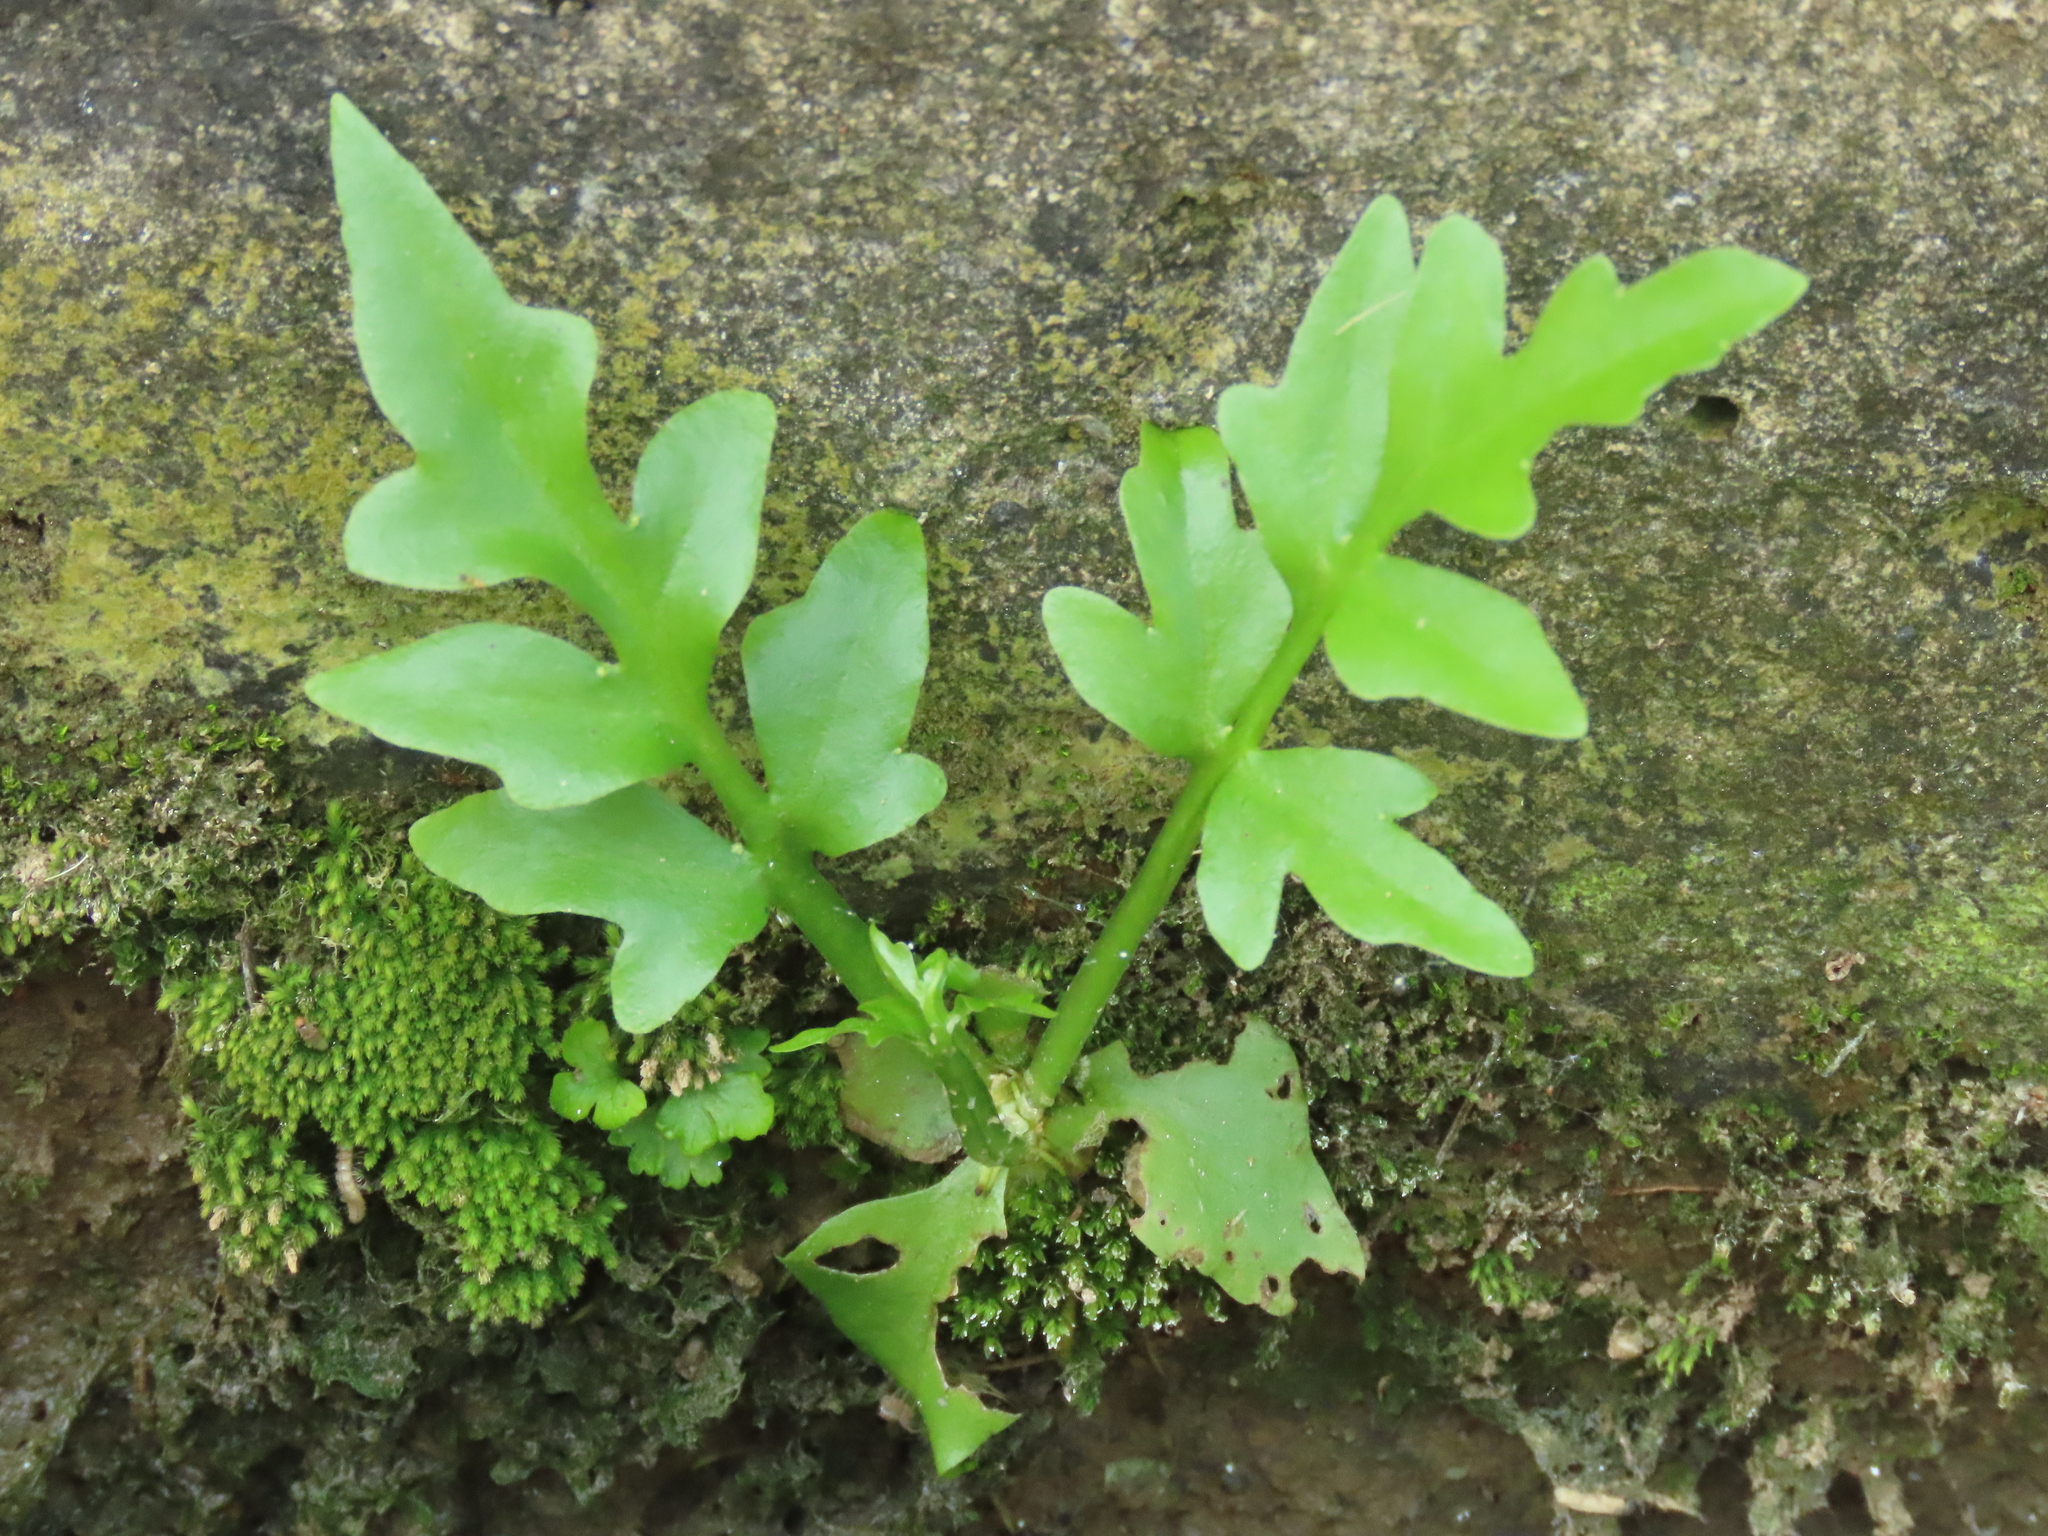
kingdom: Plantae
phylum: Tracheophyta
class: Polypodiopsida
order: Polypodiales
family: Pteridaceae
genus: Ceratopteris
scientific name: Ceratopteris thalictroides
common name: Water fern
